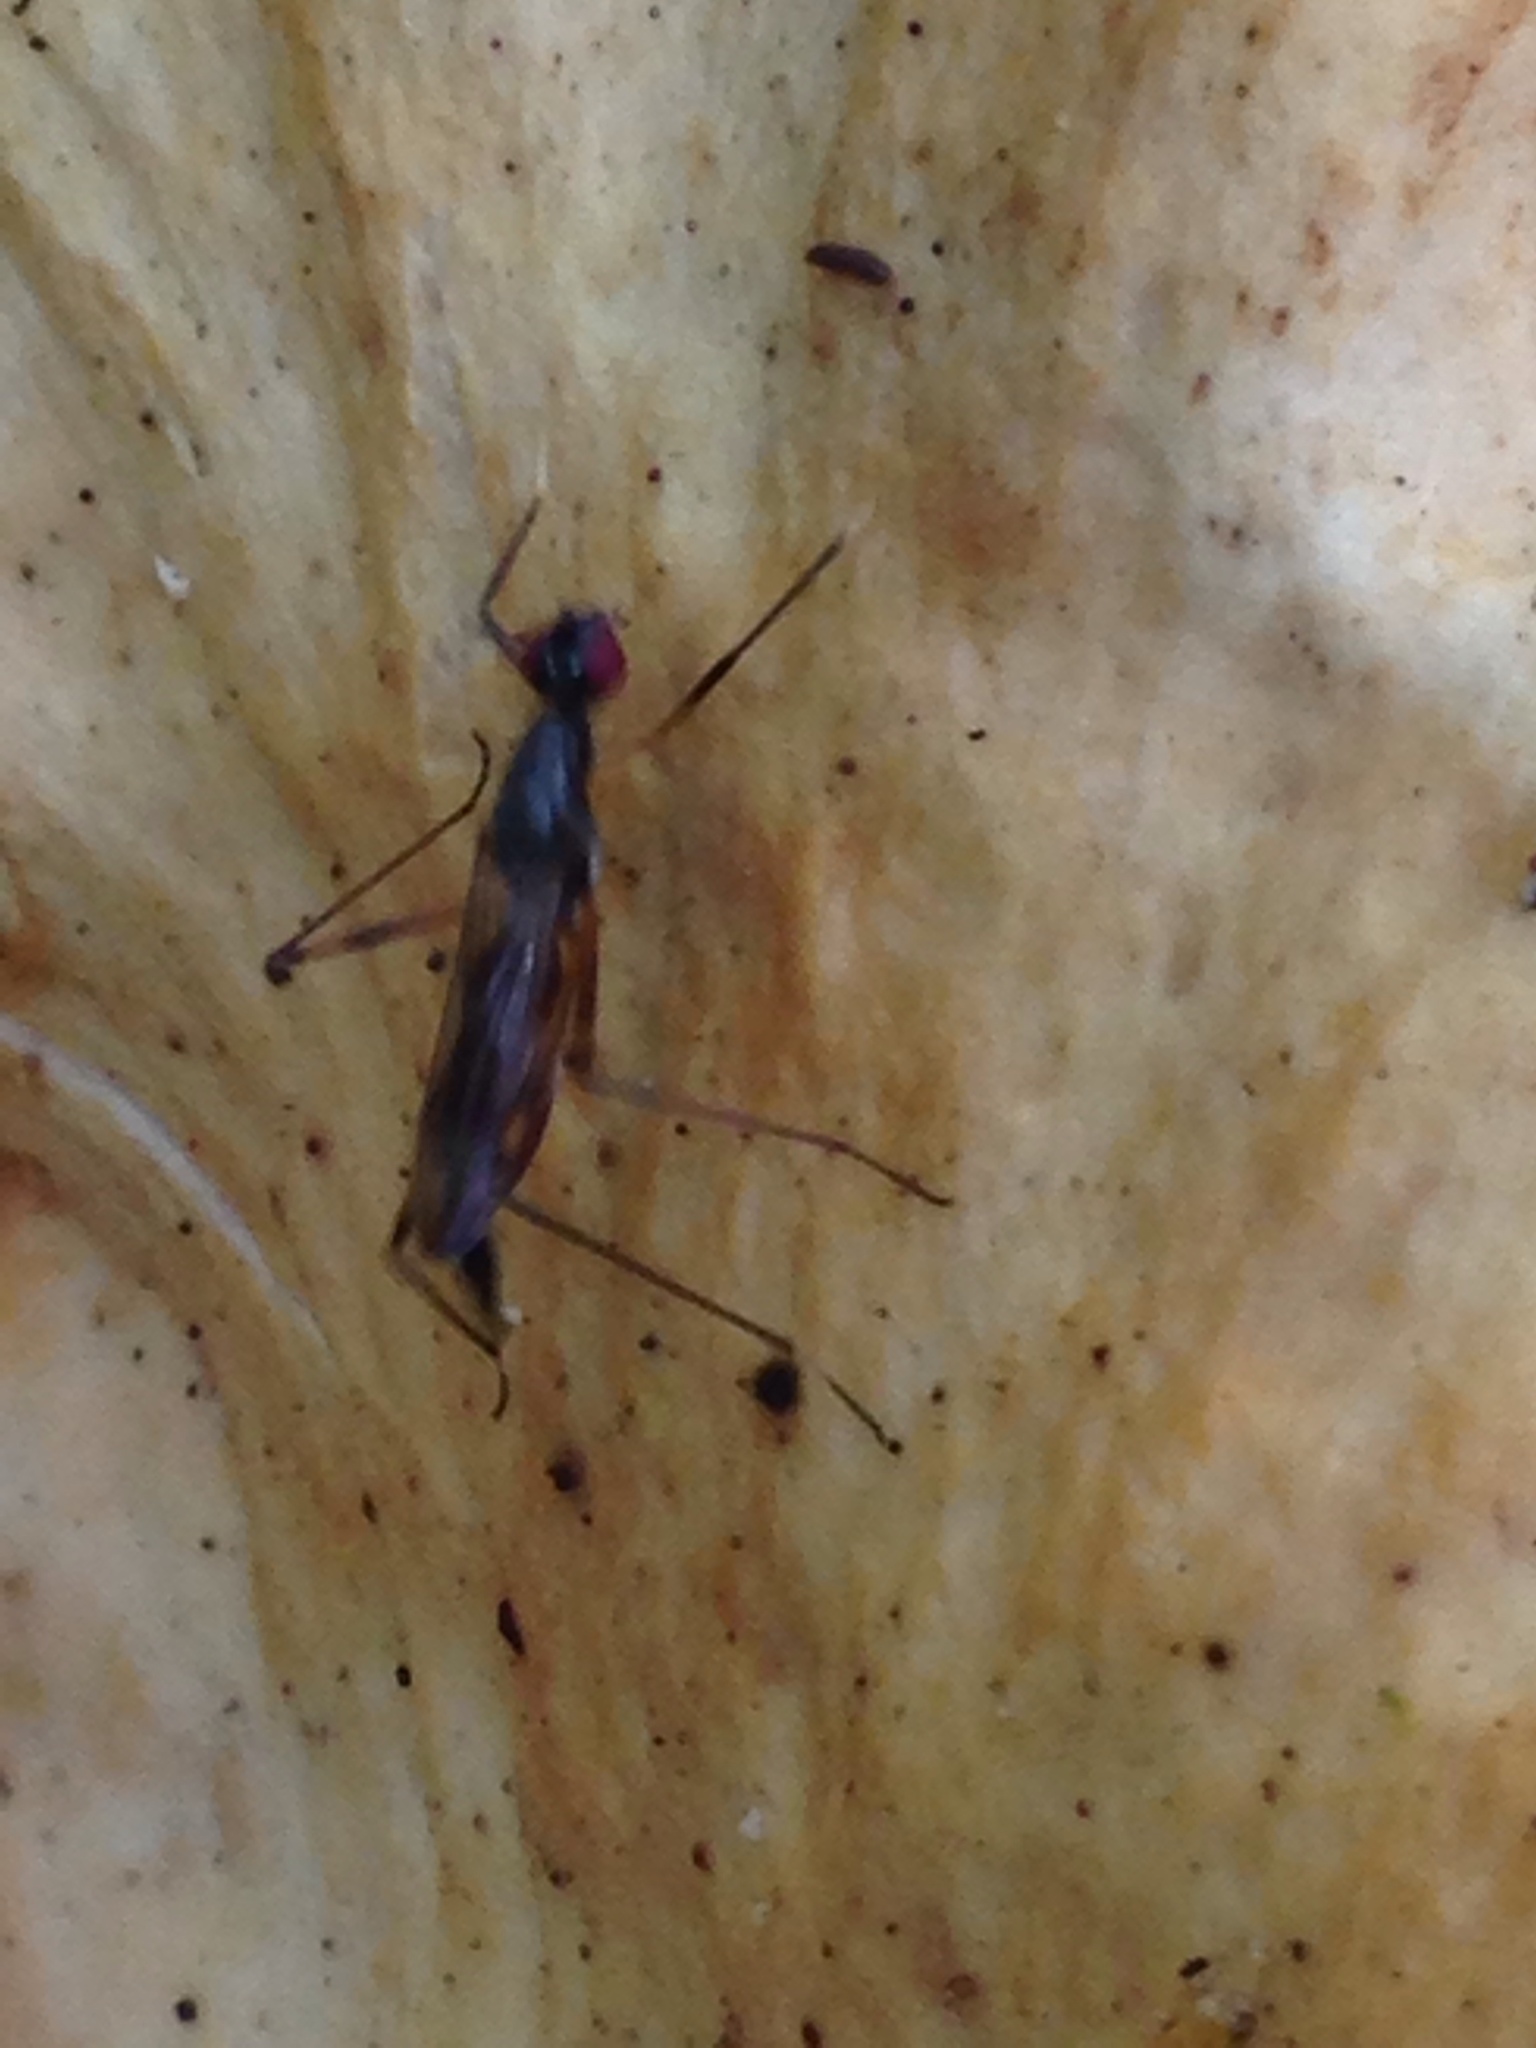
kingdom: Animalia
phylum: Arthropoda
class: Insecta
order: Diptera
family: Micropezidae
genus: Rainieria
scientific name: Rainieria antennaepes
